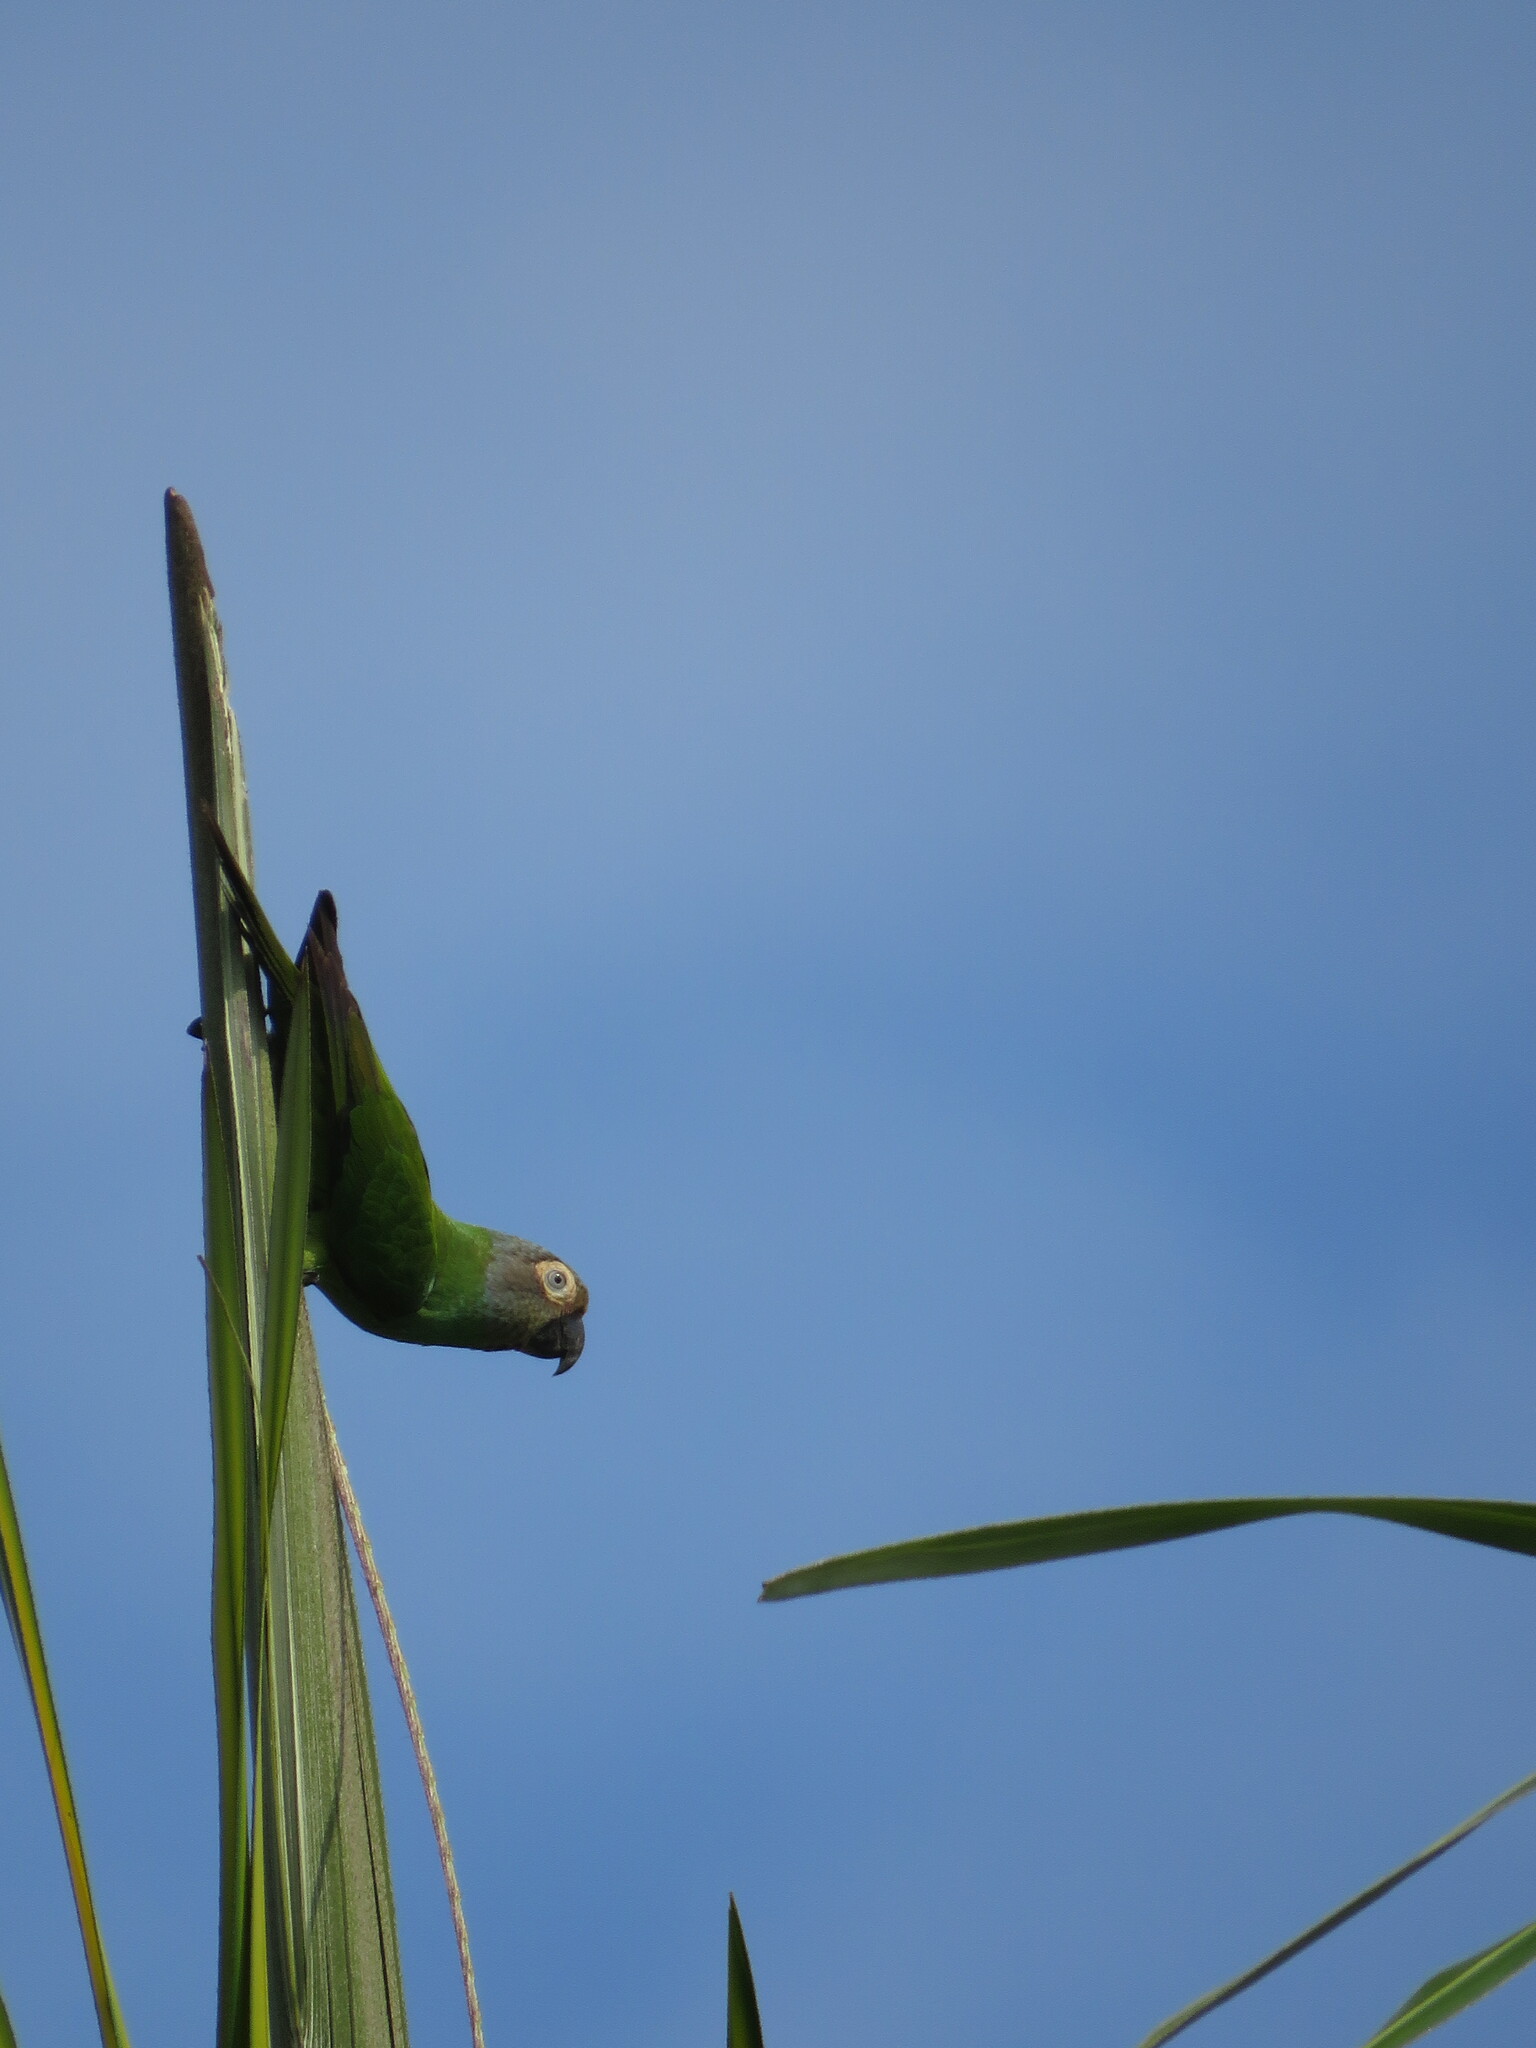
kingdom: Animalia
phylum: Chordata
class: Aves
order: Psittaciformes
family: Psittacidae
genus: Aratinga
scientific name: Aratinga weddellii
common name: Dusky-headed parakeet
